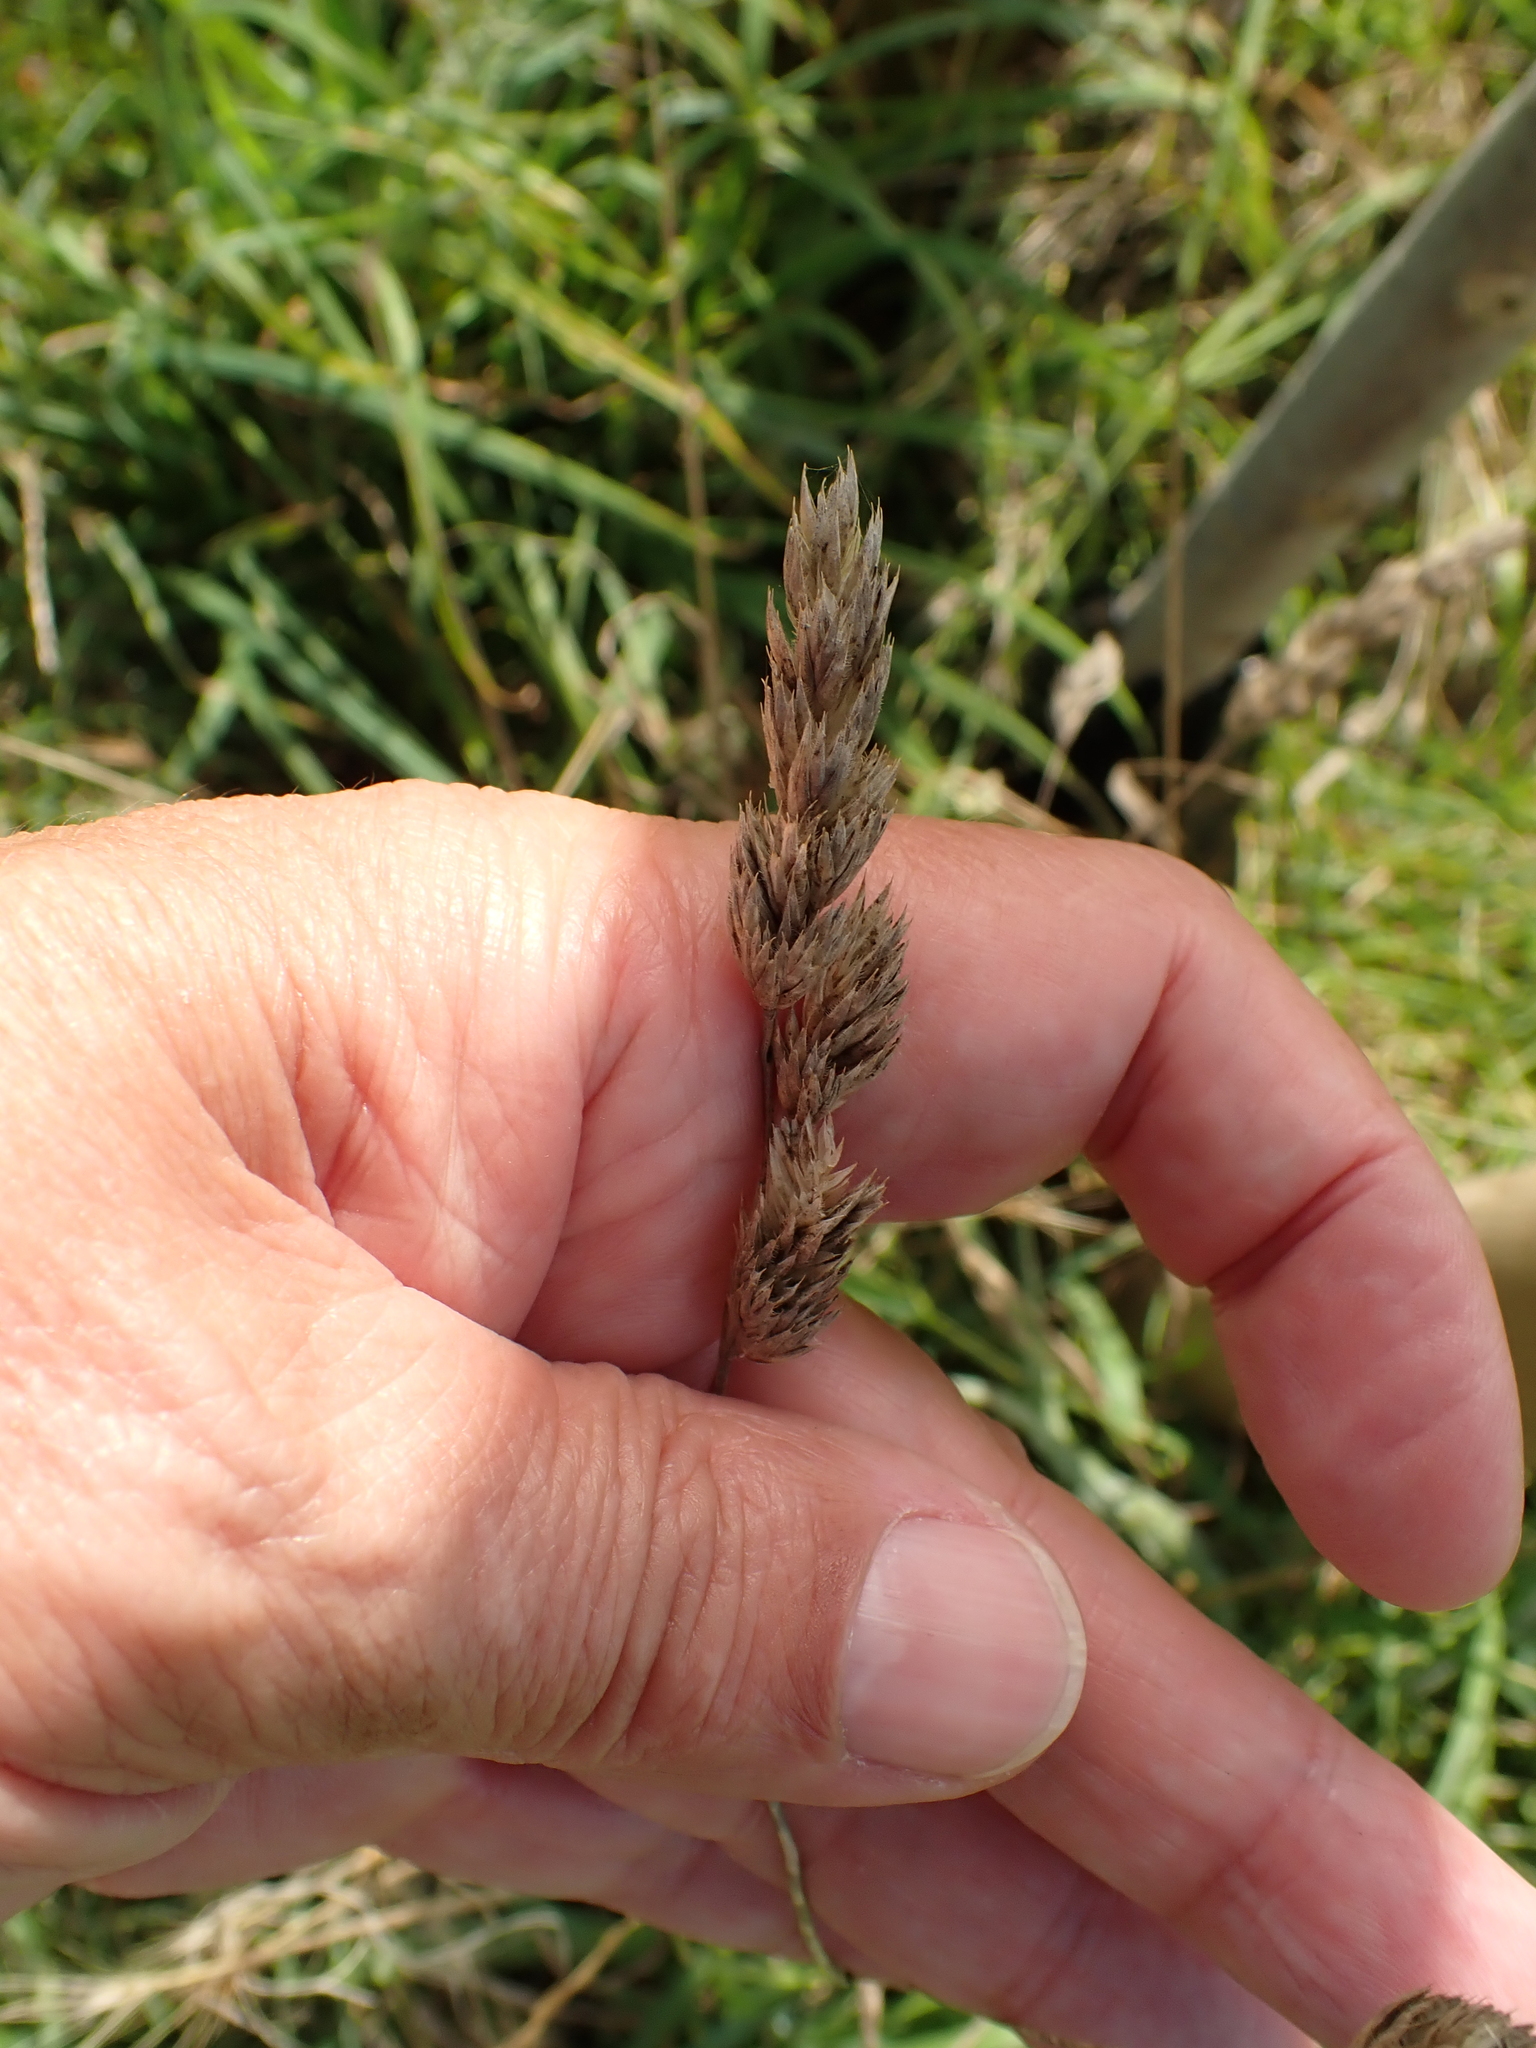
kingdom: Plantae
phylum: Tracheophyta
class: Liliopsida
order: Poales
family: Poaceae
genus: Dactylis
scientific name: Dactylis glomerata
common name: Orchardgrass
